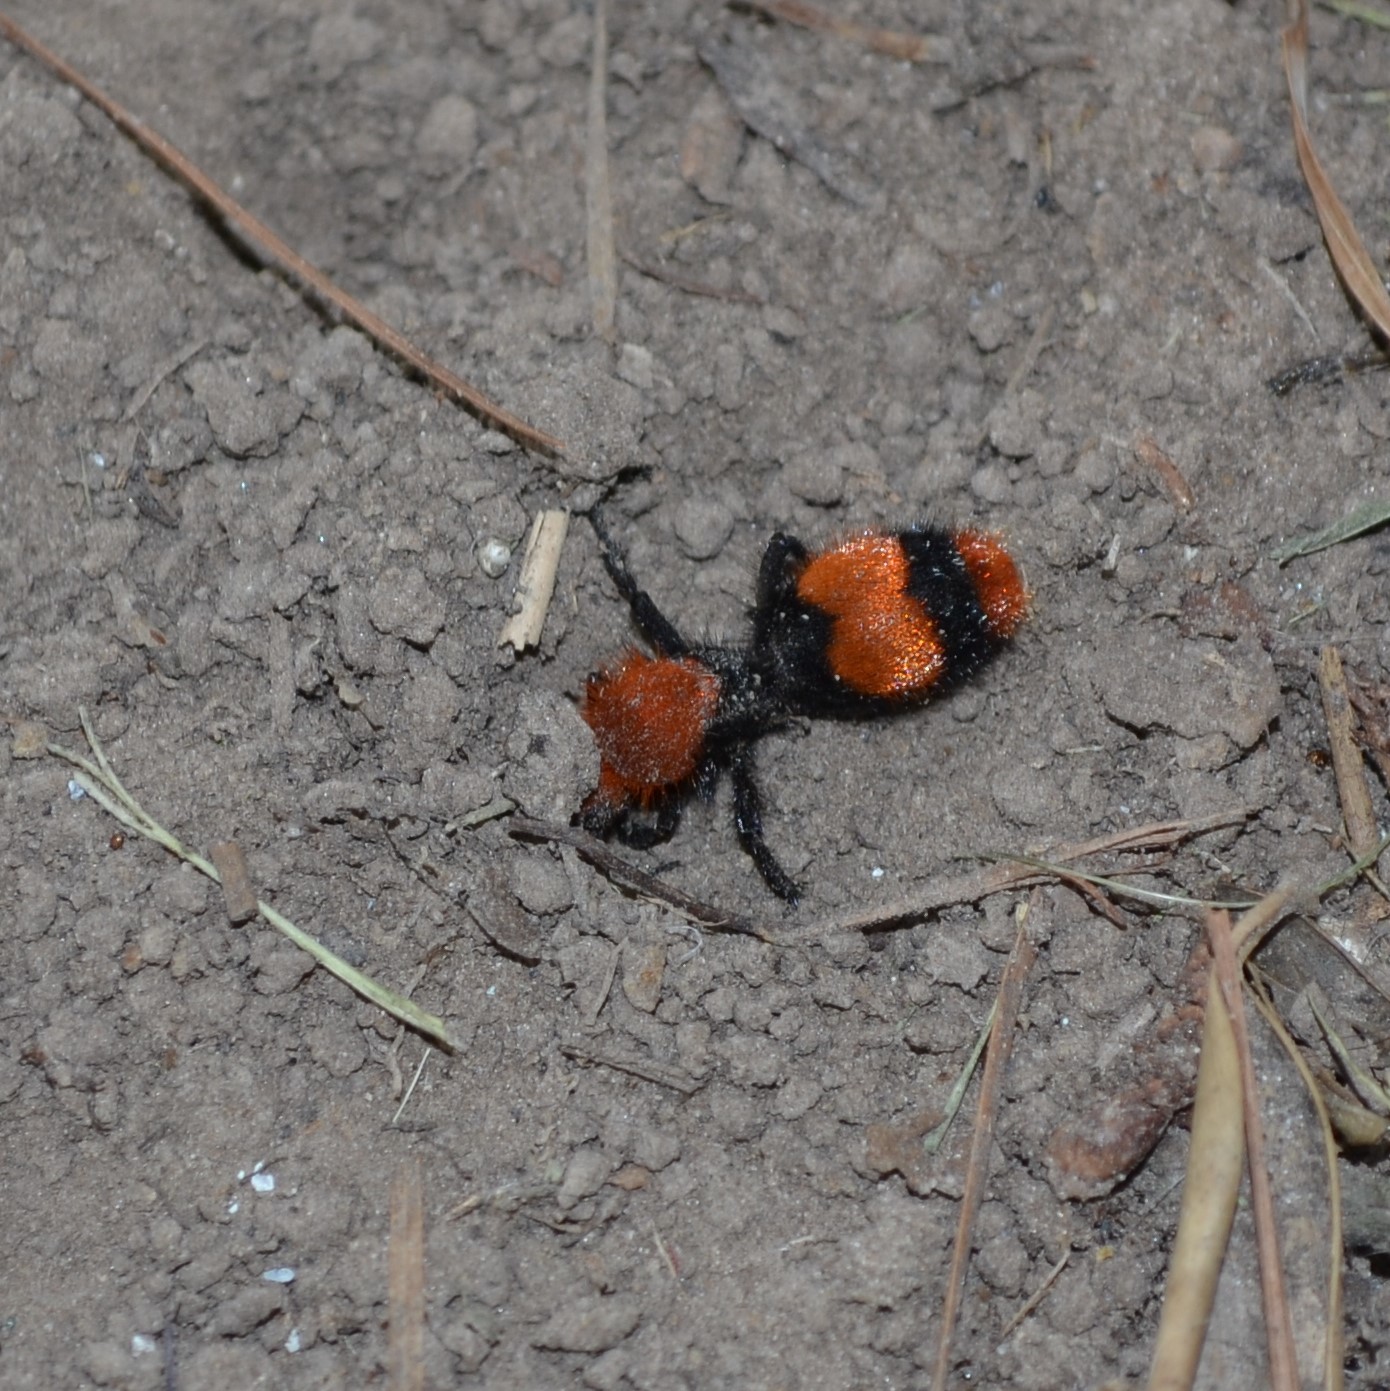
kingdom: Animalia
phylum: Arthropoda
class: Insecta
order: Hymenoptera
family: Mutillidae
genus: Dasymutilla
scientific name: Dasymutilla occidentalis
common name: Common eastern velvet ant
